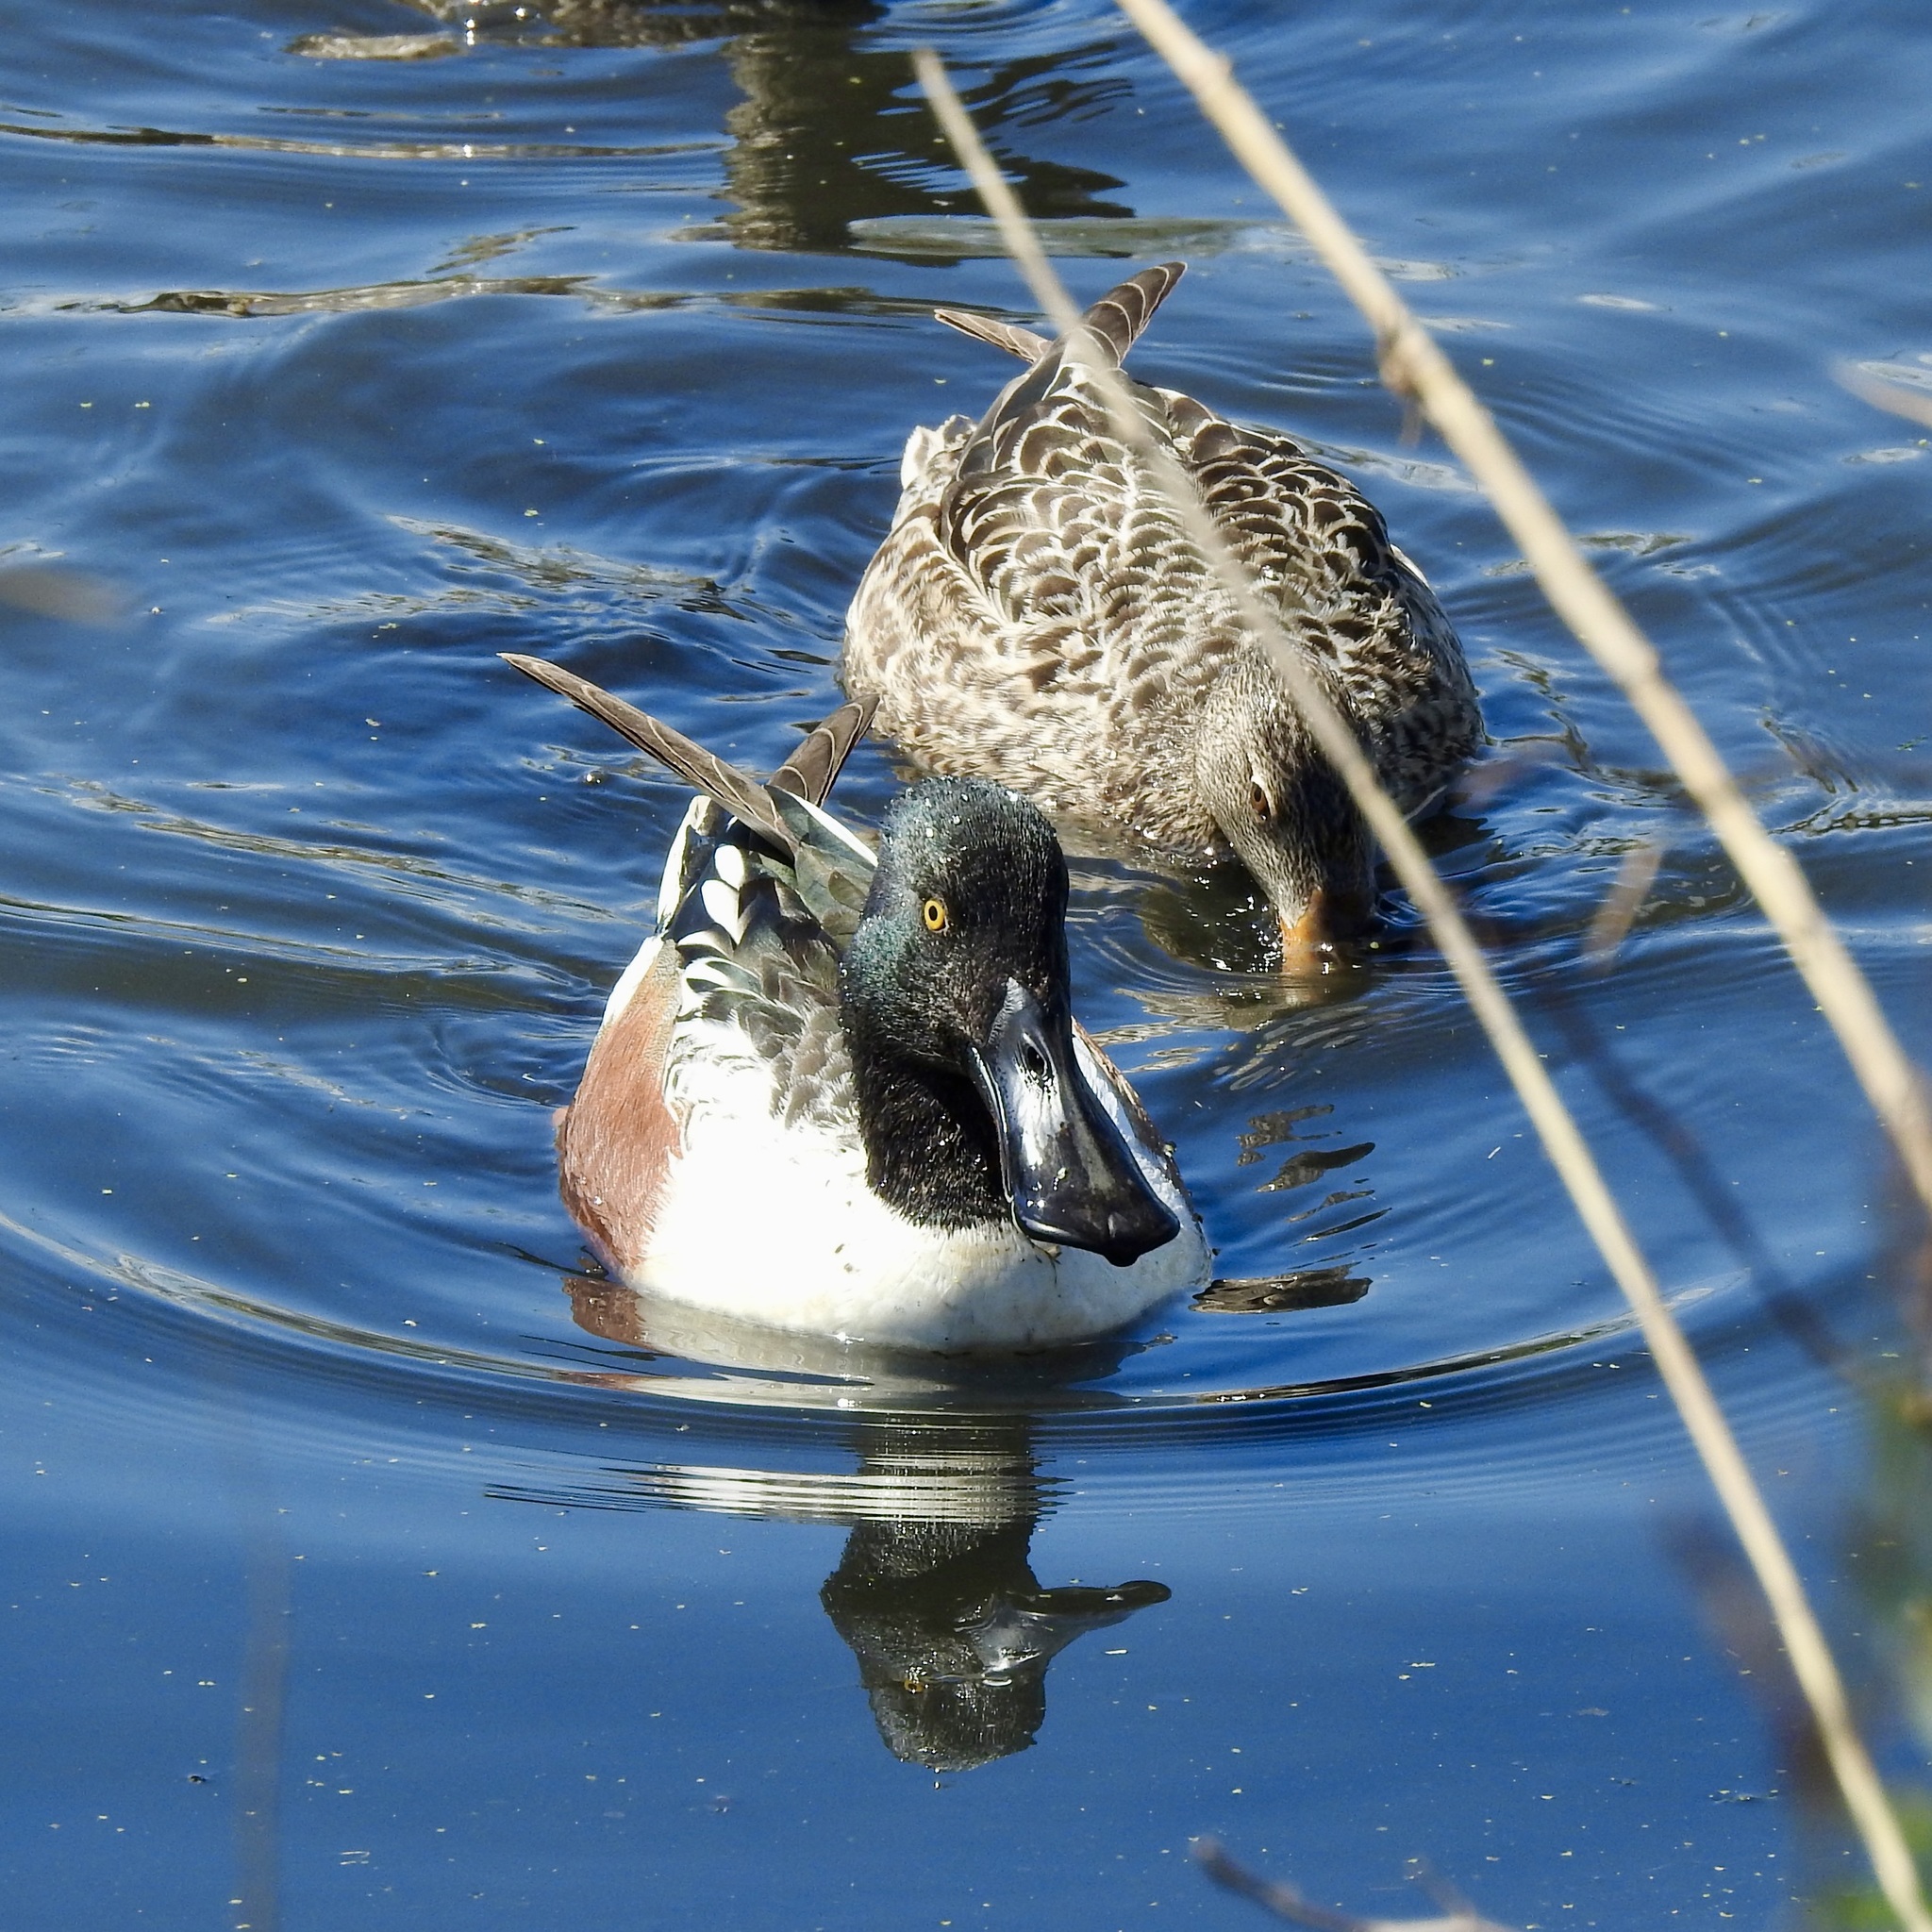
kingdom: Animalia
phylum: Chordata
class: Aves
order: Anseriformes
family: Anatidae
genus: Spatula
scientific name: Spatula clypeata
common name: Northern shoveler
